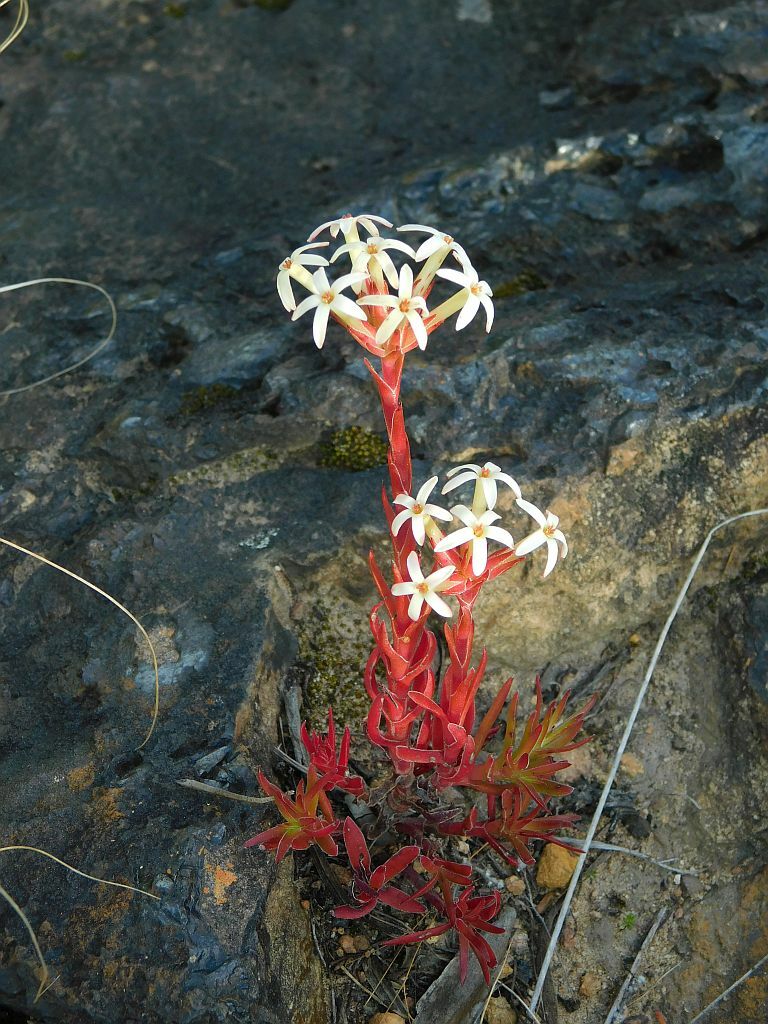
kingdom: Plantae
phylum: Tracheophyta
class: Magnoliopsida
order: Saxifragales
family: Crassulaceae
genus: Crassula
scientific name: Crassula fascicularis
